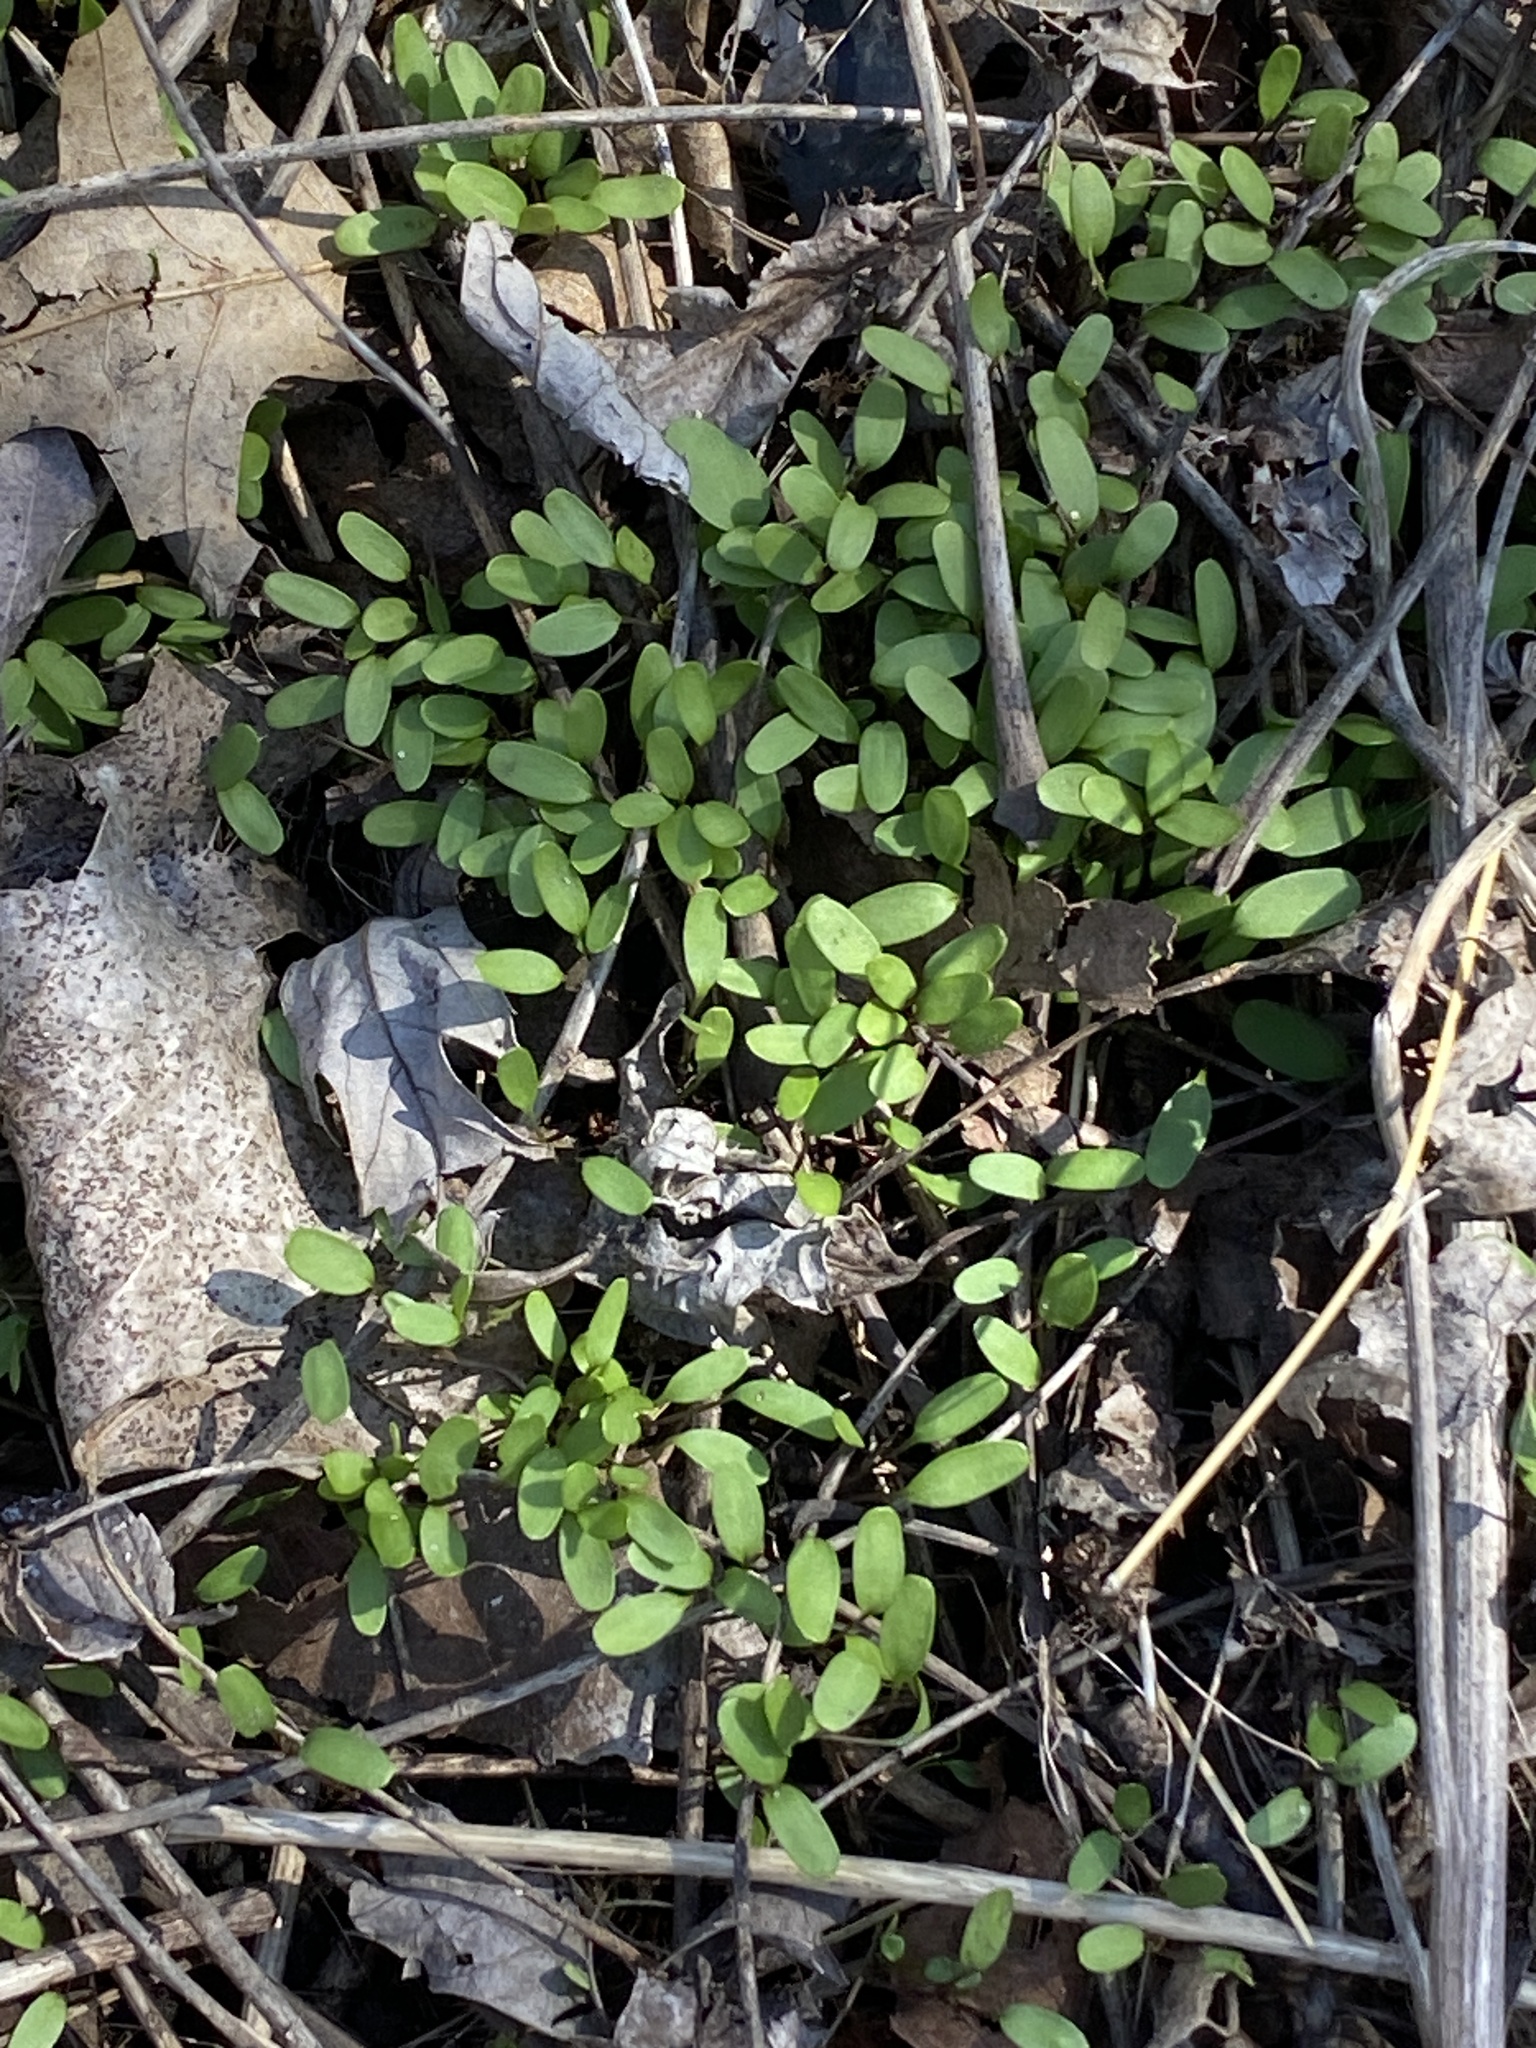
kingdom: Plantae
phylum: Tracheophyta
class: Magnoliopsida
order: Brassicales
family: Brassicaceae
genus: Alliaria
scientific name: Alliaria petiolata
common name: Garlic mustard
